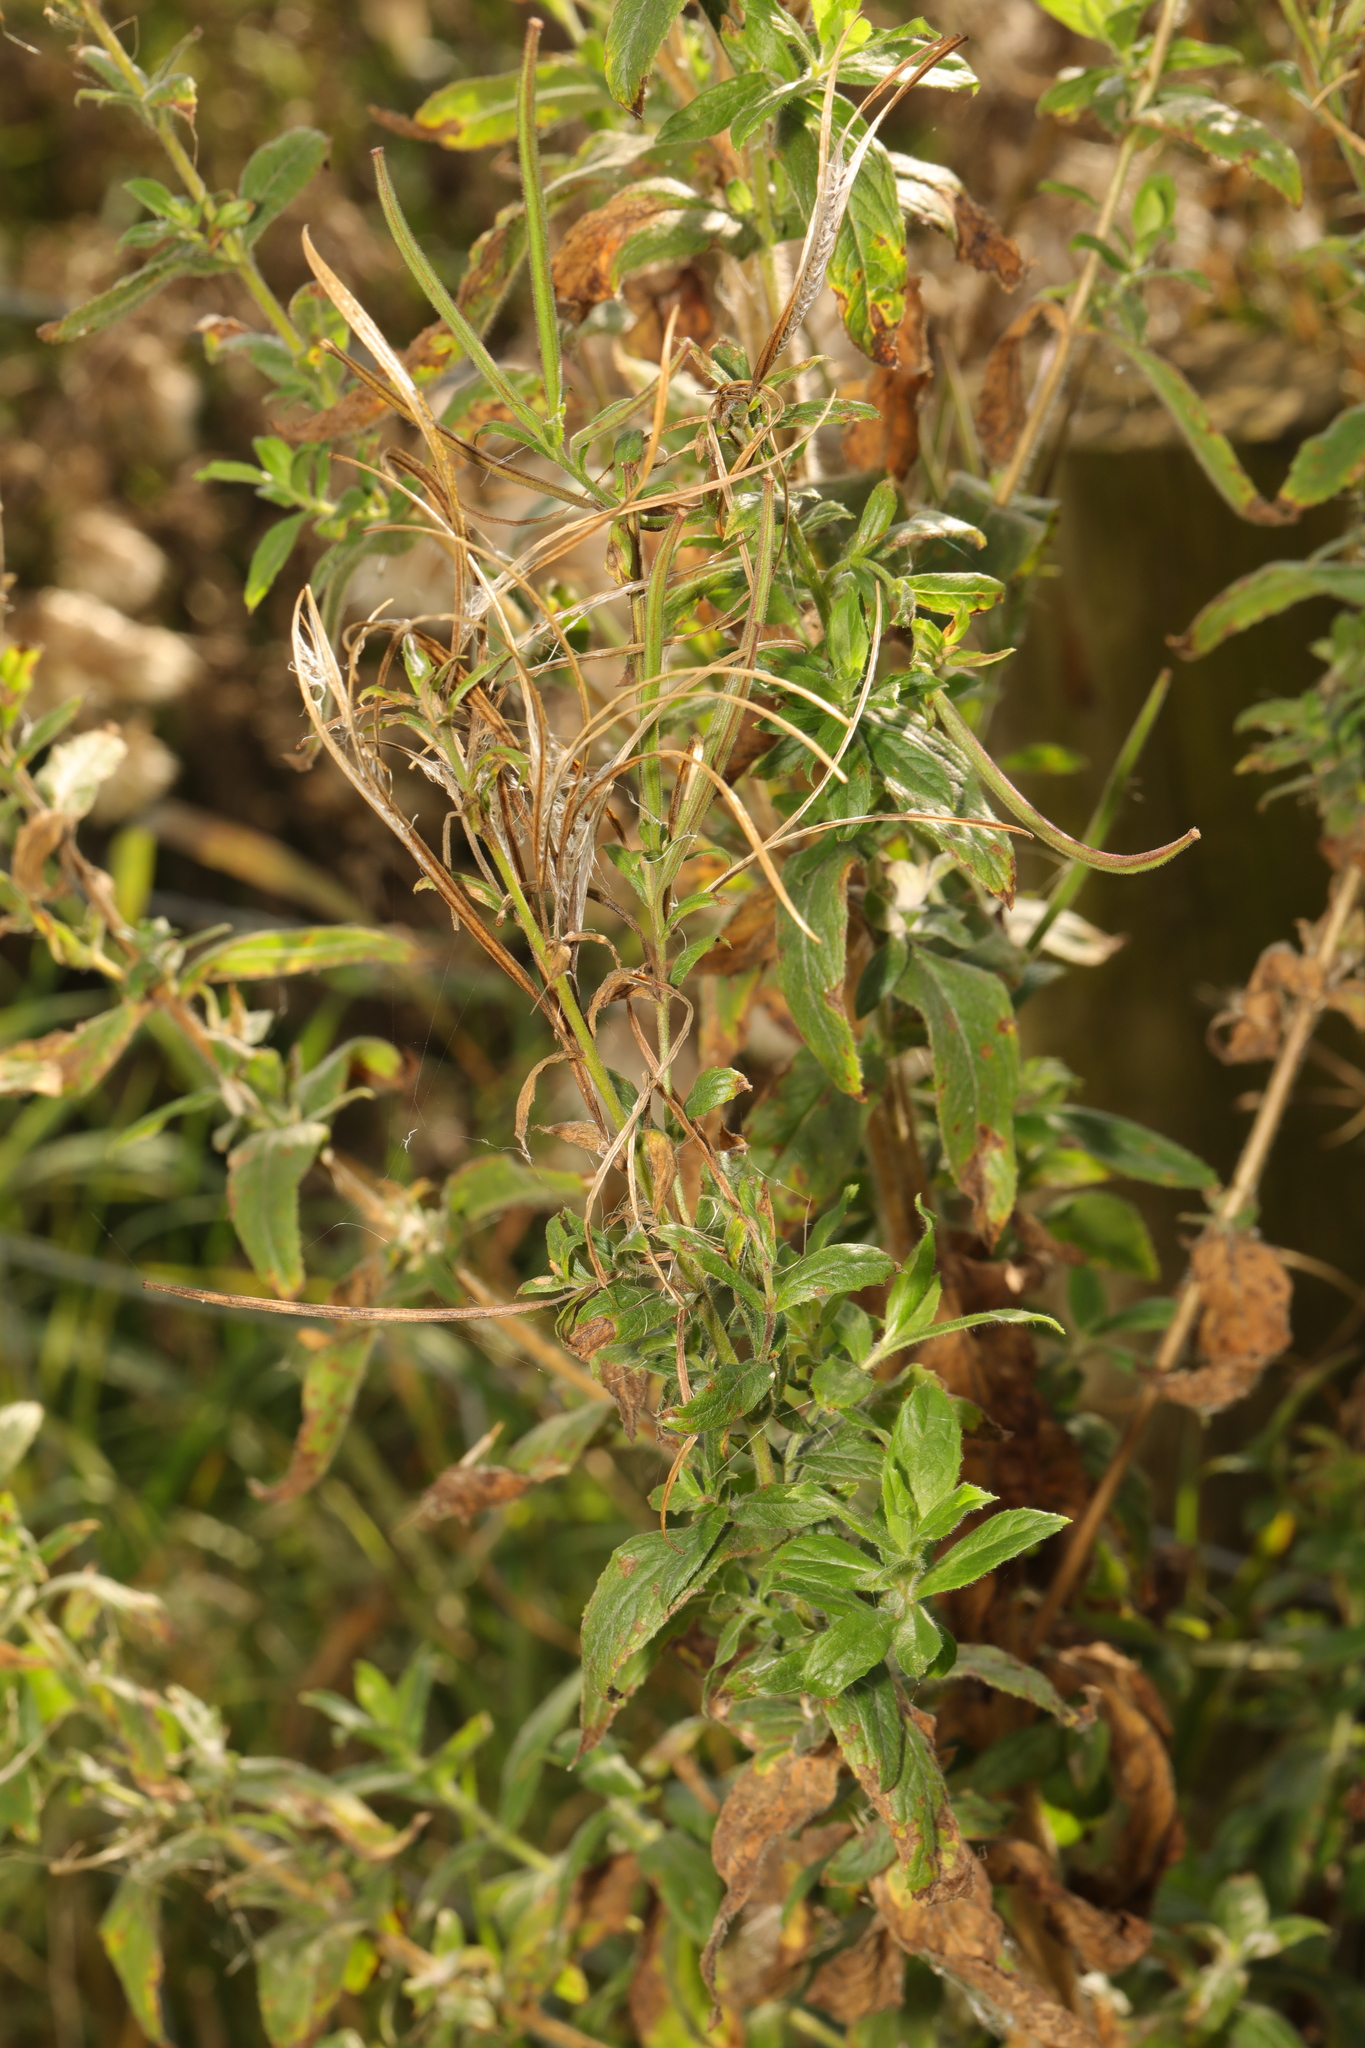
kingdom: Plantae
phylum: Tracheophyta
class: Magnoliopsida
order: Myrtales
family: Onagraceae
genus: Epilobium
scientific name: Epilobium hirsutum
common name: Great willowherb
